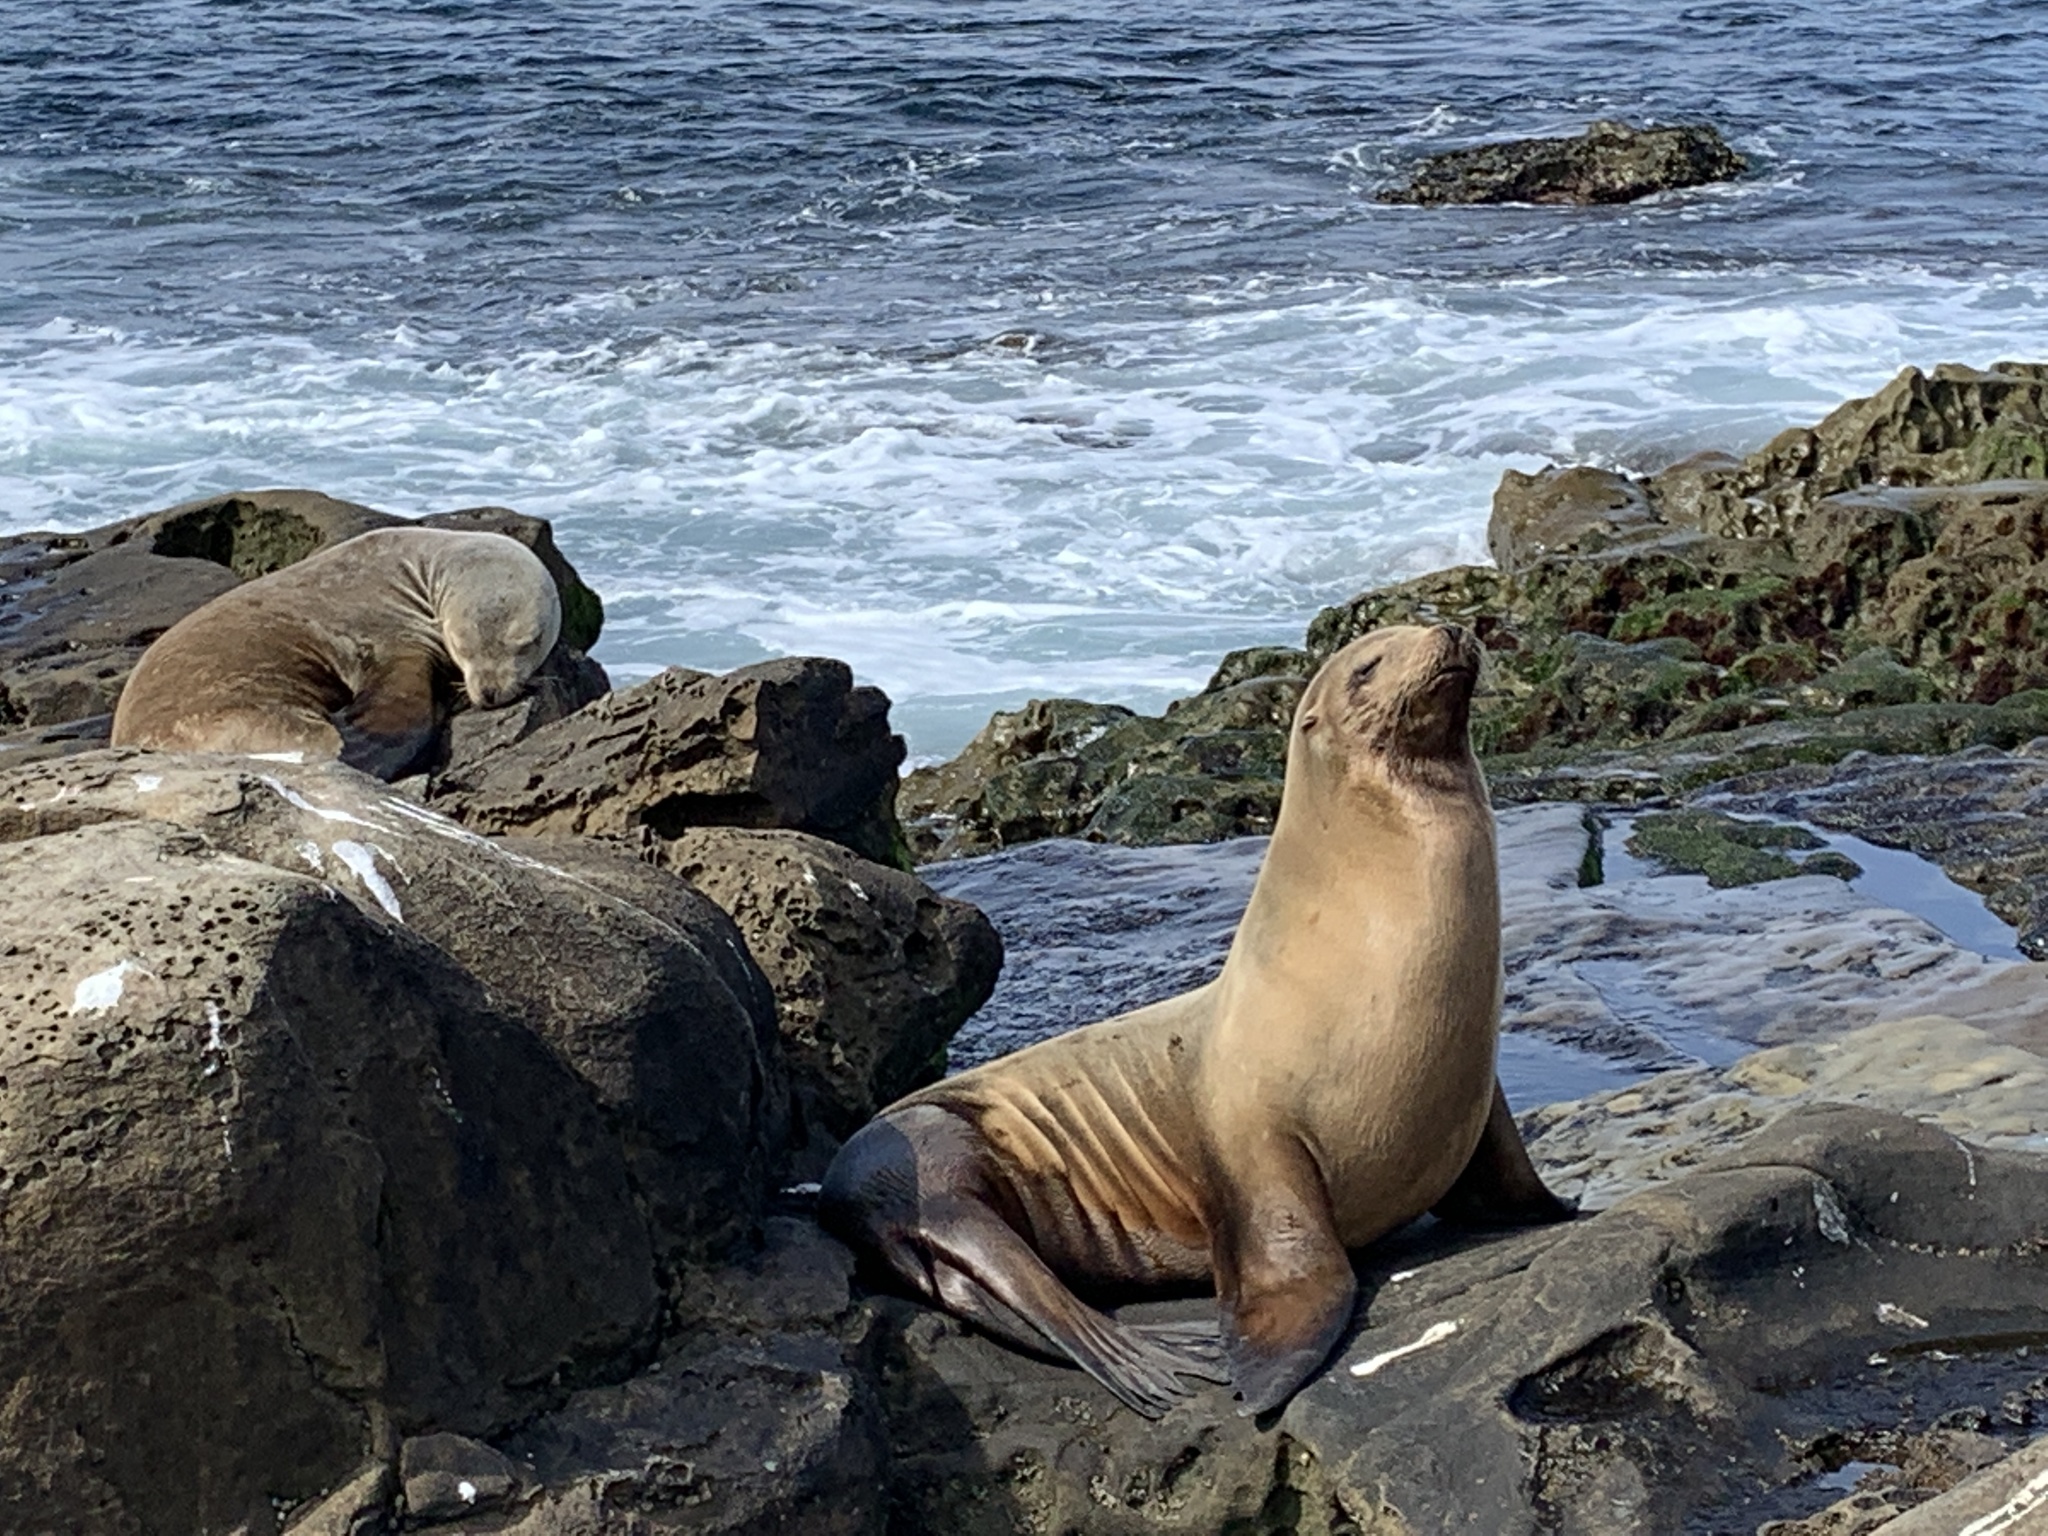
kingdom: Animalia
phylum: Chordata
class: Mammalia
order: Carnivora
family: Otariidae
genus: Zalophus
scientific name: Zalophus californianus
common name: California sea lion
